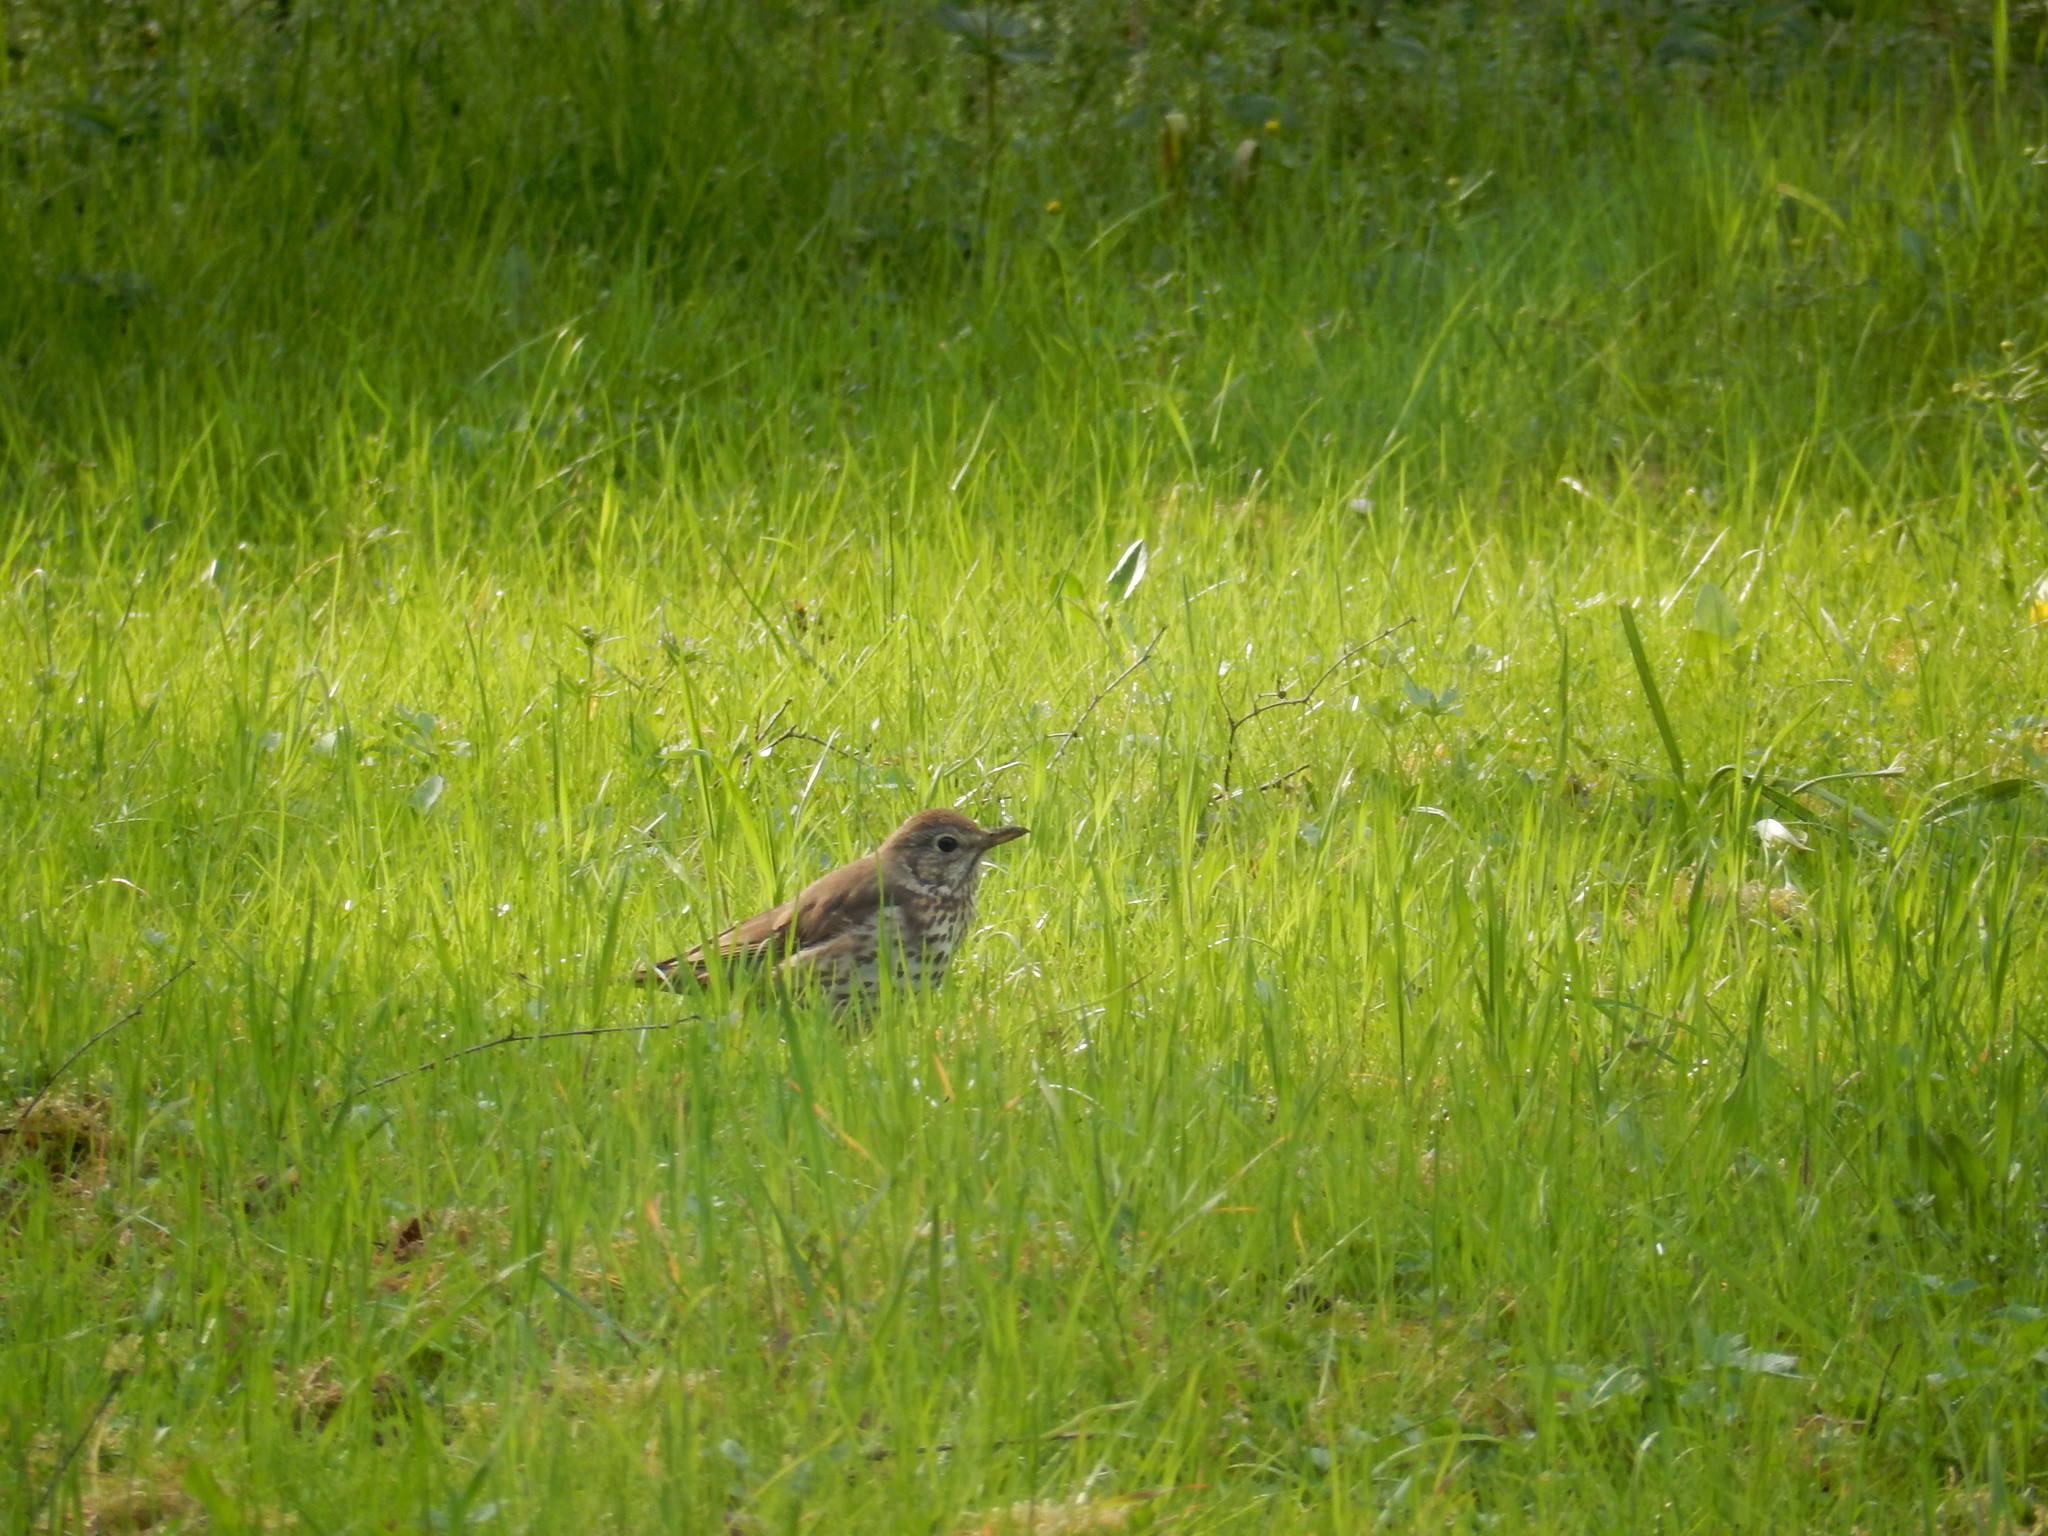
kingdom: Animalia
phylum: Chordata
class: Aves
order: Passeriformes
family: Turdidae
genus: Turdus
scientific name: Turdus philomelos
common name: Song thrush
